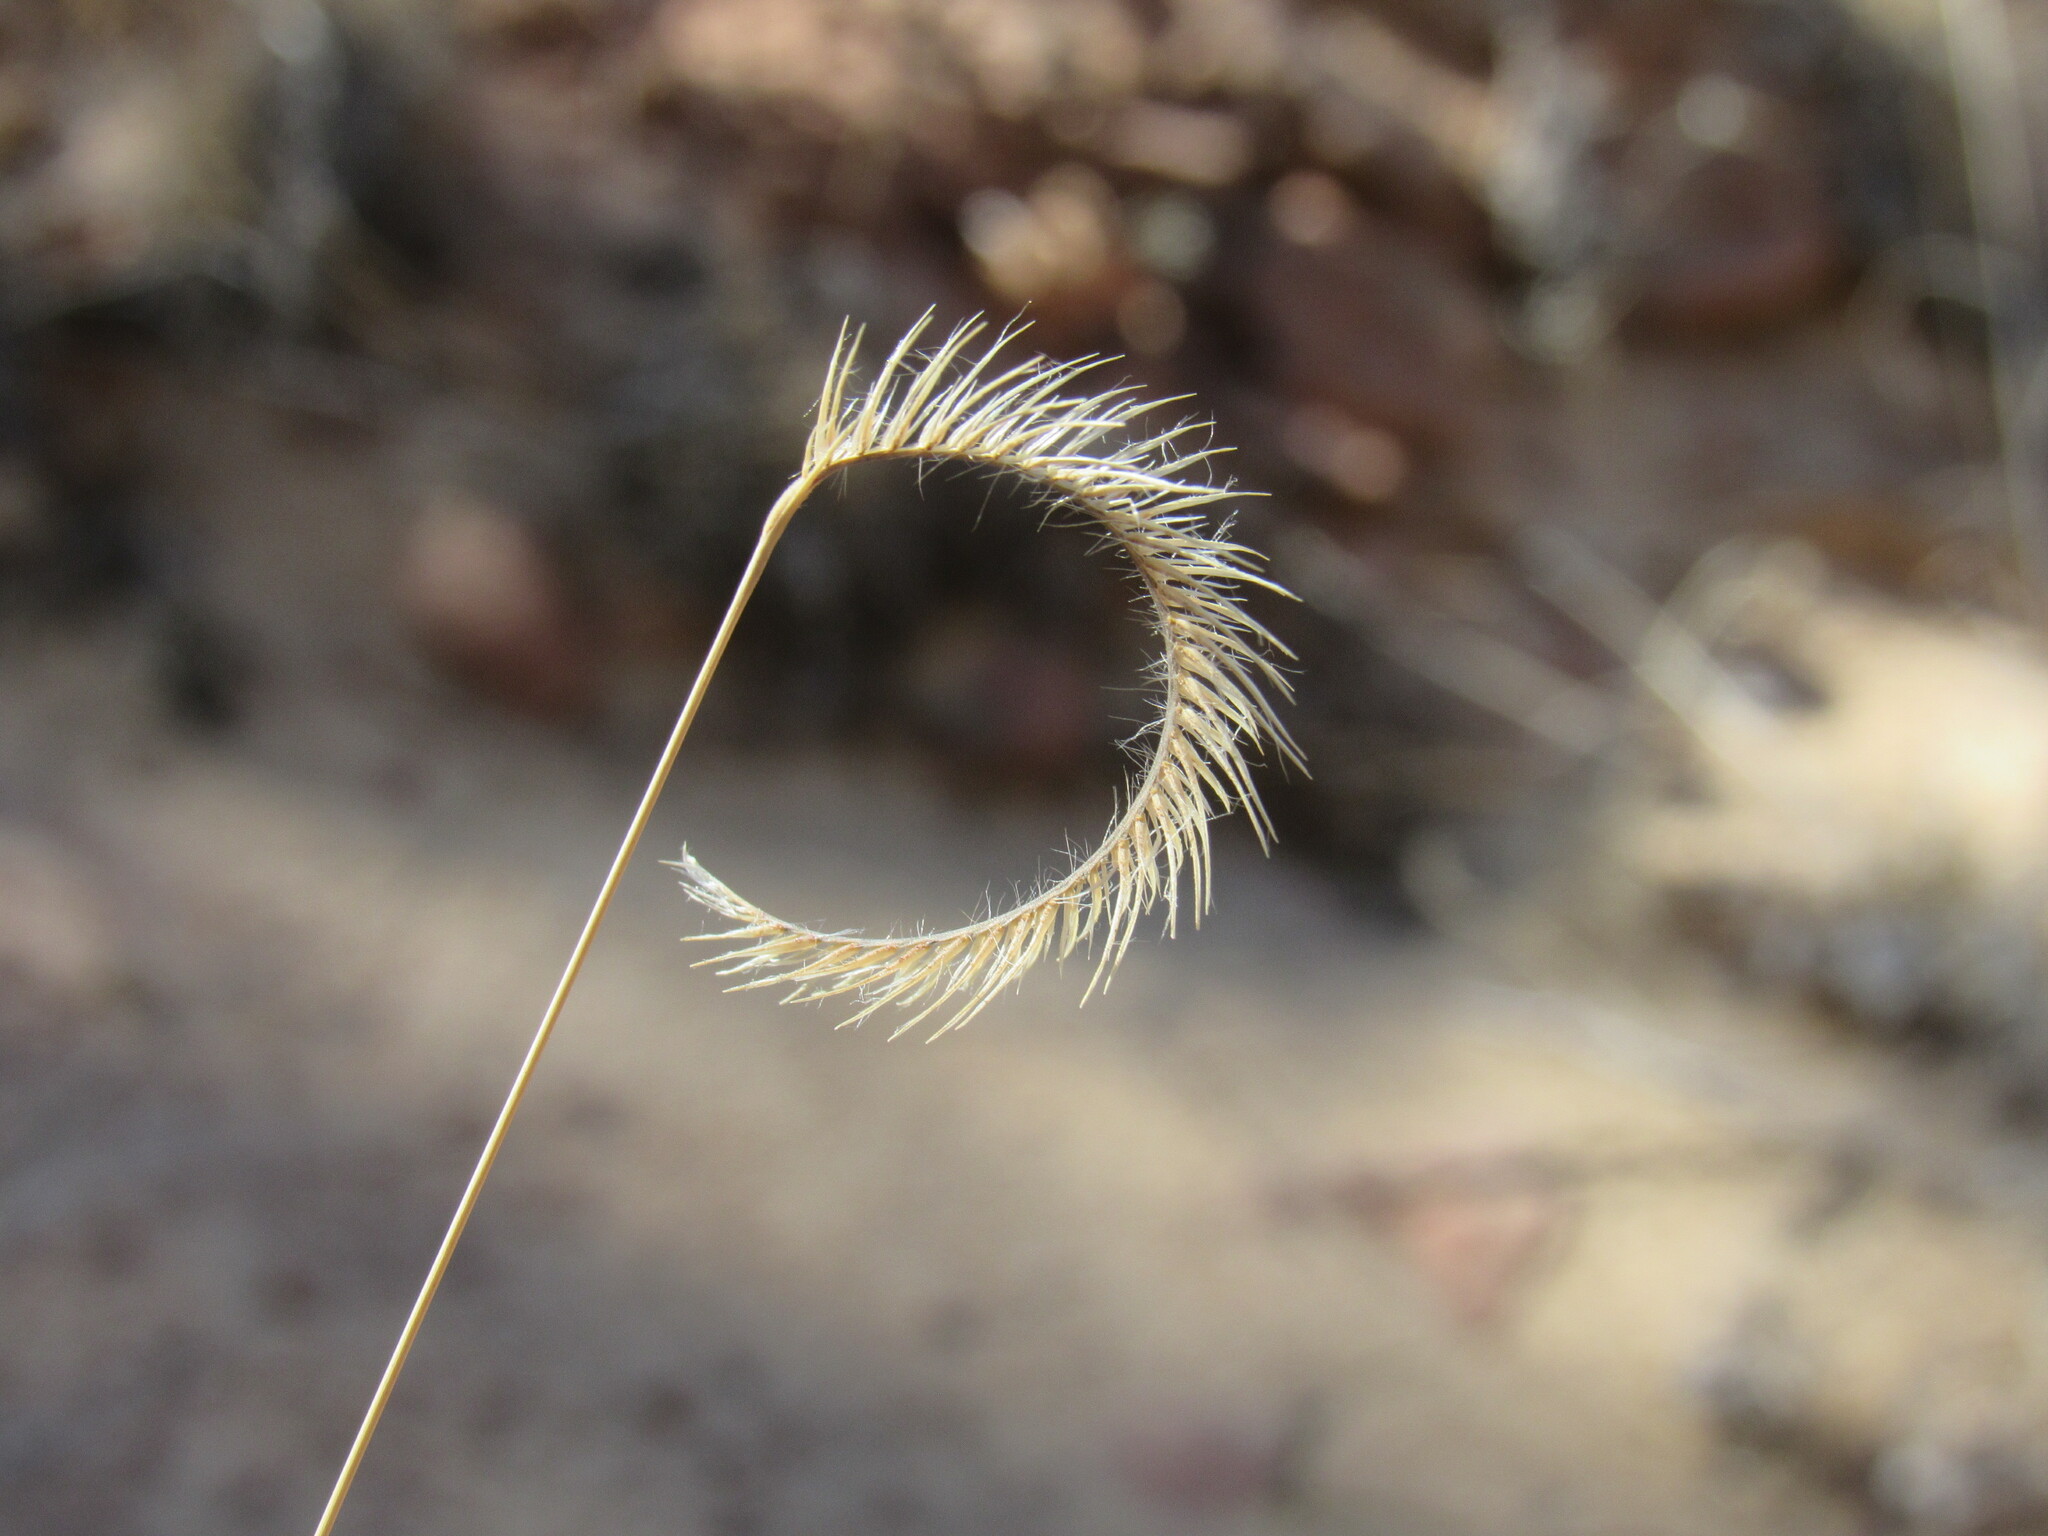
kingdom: Plantae
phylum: Tracheophyta
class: Liliopsida
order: Poales
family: Poaceae
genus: Bouteloua
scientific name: Bouteloua gracilis
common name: Blue grama
